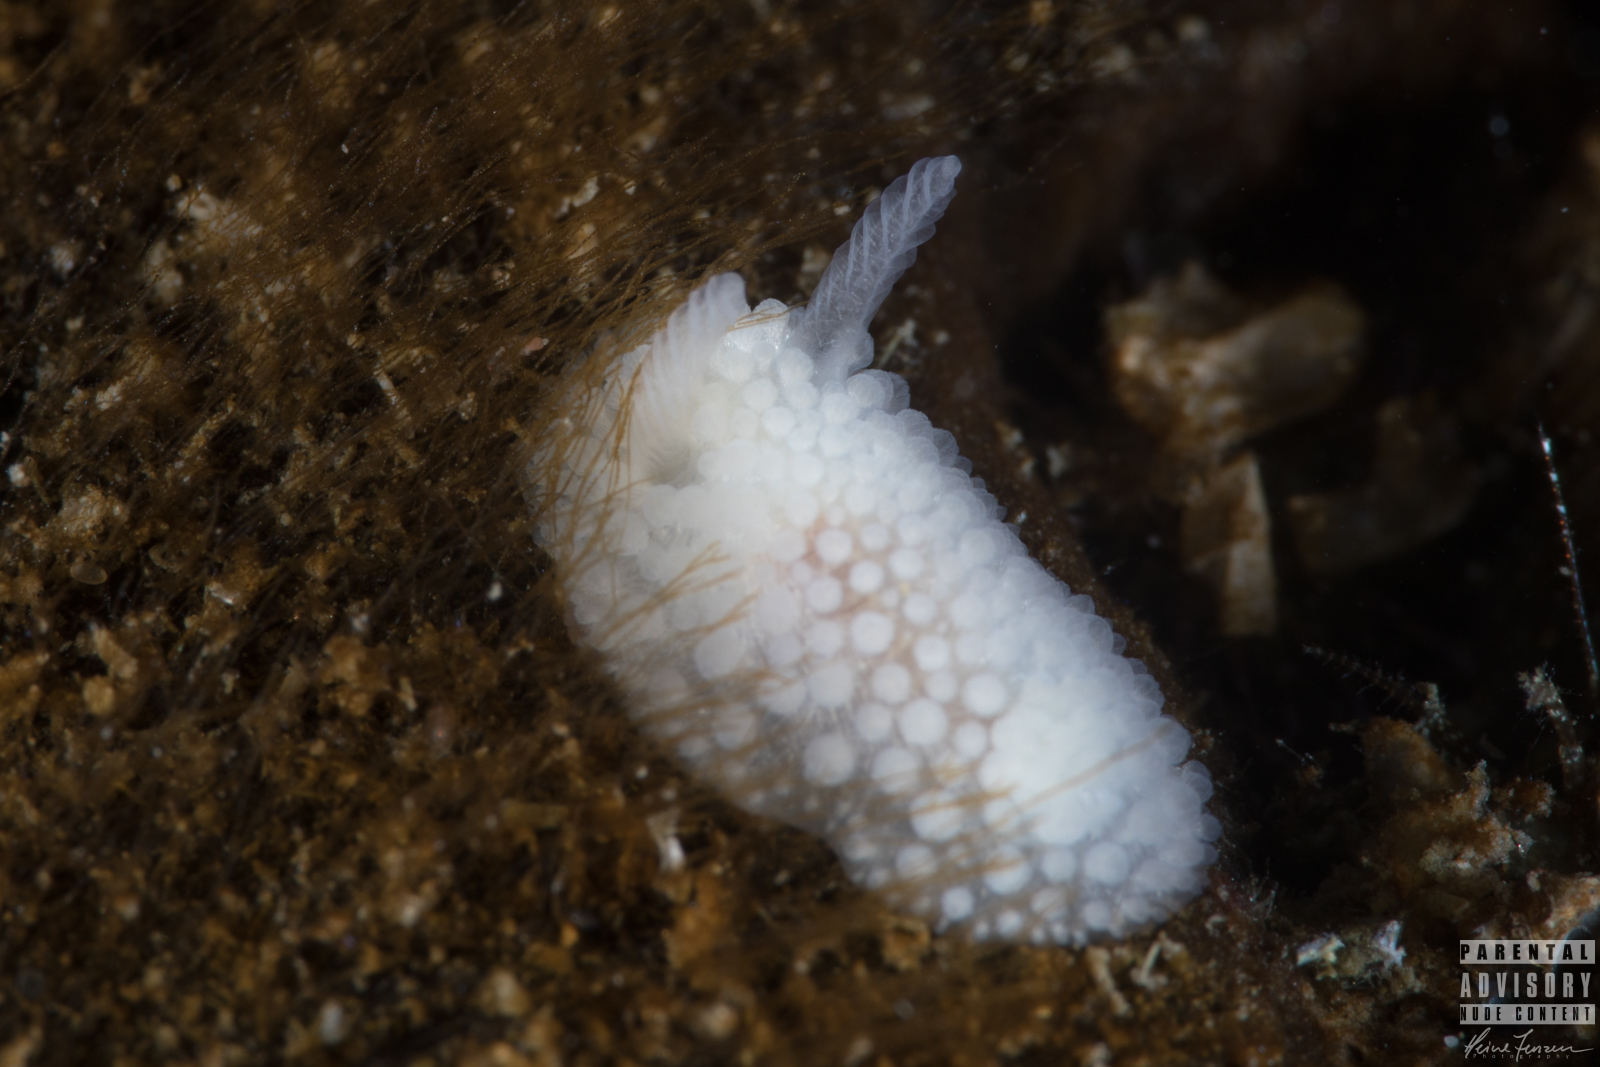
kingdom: Animalia
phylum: Mollusca
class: Gastropoda
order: Nudibranchia
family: Onchidorididae
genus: Onchidoris
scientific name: Onchidoris muricata
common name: Rough doris
